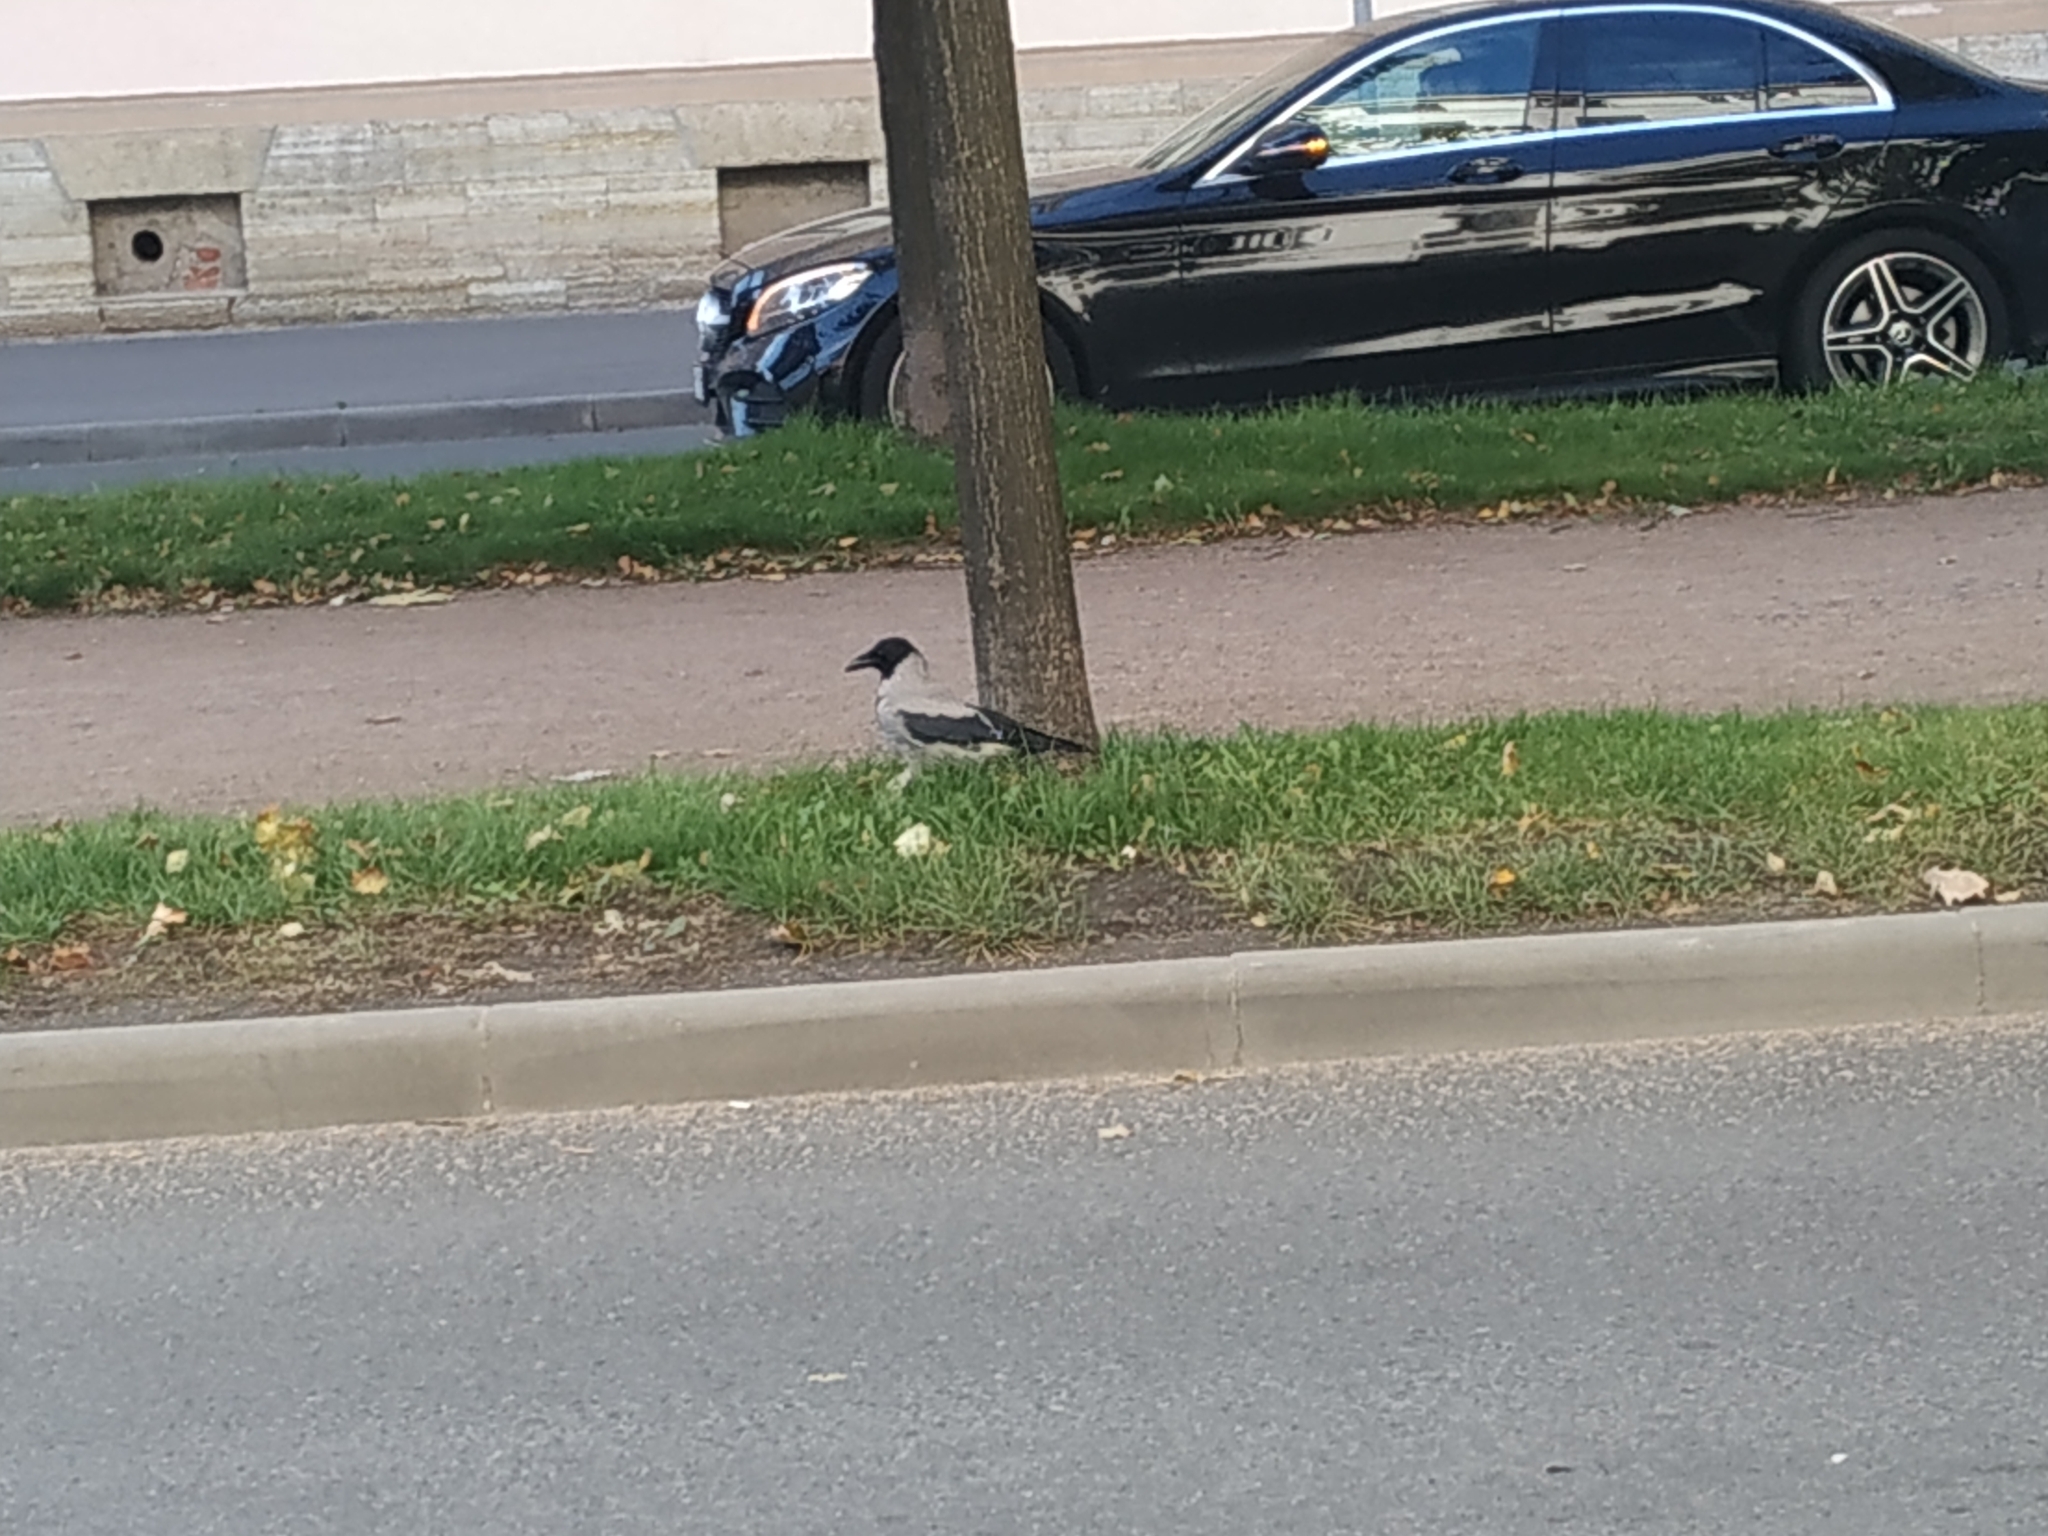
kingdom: Animalia
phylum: Chordata
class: Aves
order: Passeriformes
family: Corvidae
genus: Corvus
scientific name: Corvus cornix
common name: Hooded crow
